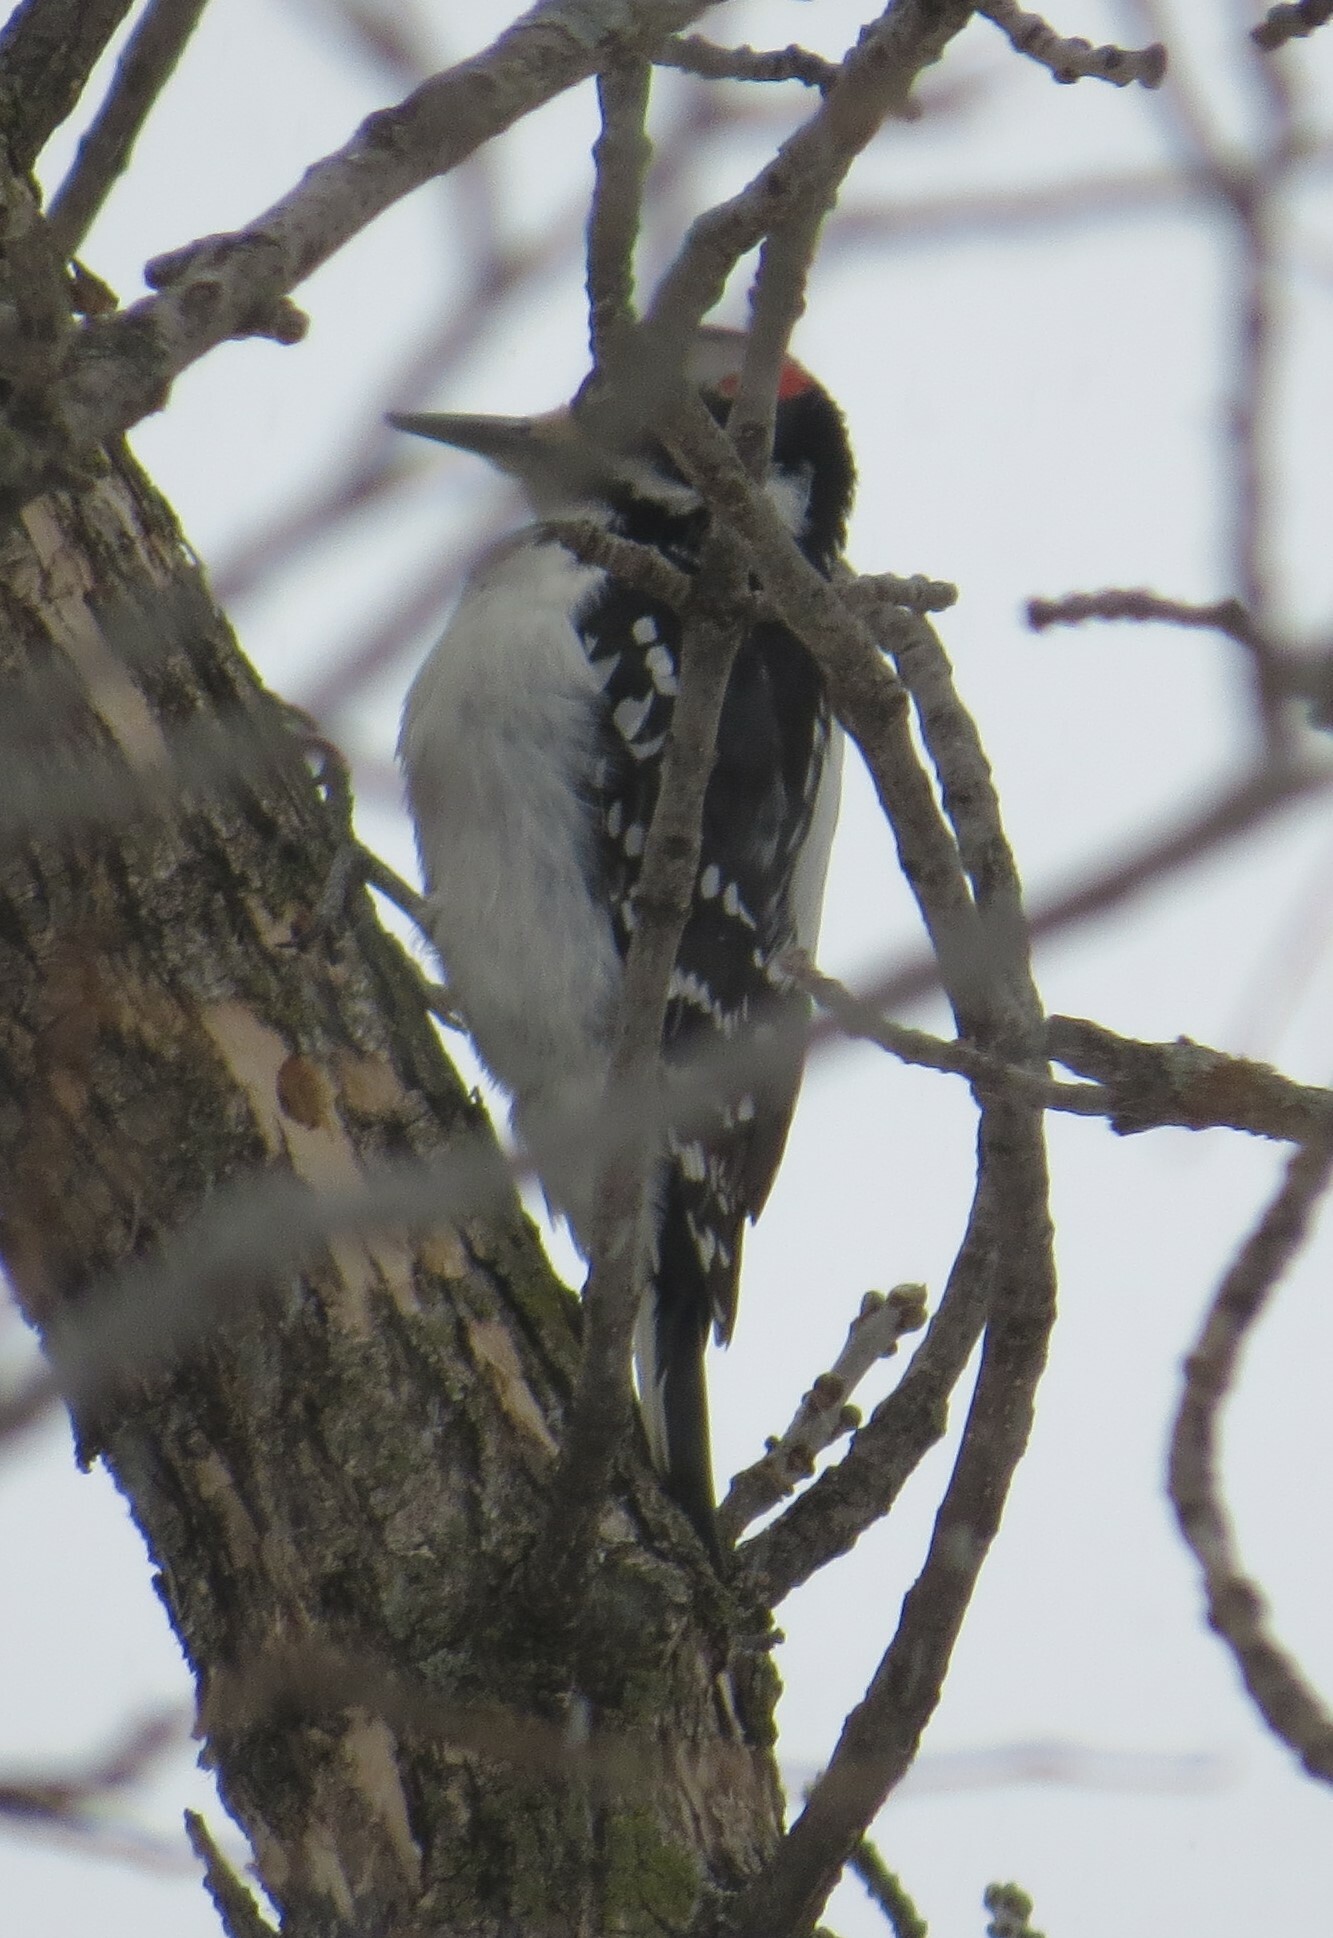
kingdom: Animalia
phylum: Chordata
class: Aves
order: Piciformes
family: Picidae
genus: Leuconotopicus
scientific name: Leuconotopicus villosus
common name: Hairy woodpecker
